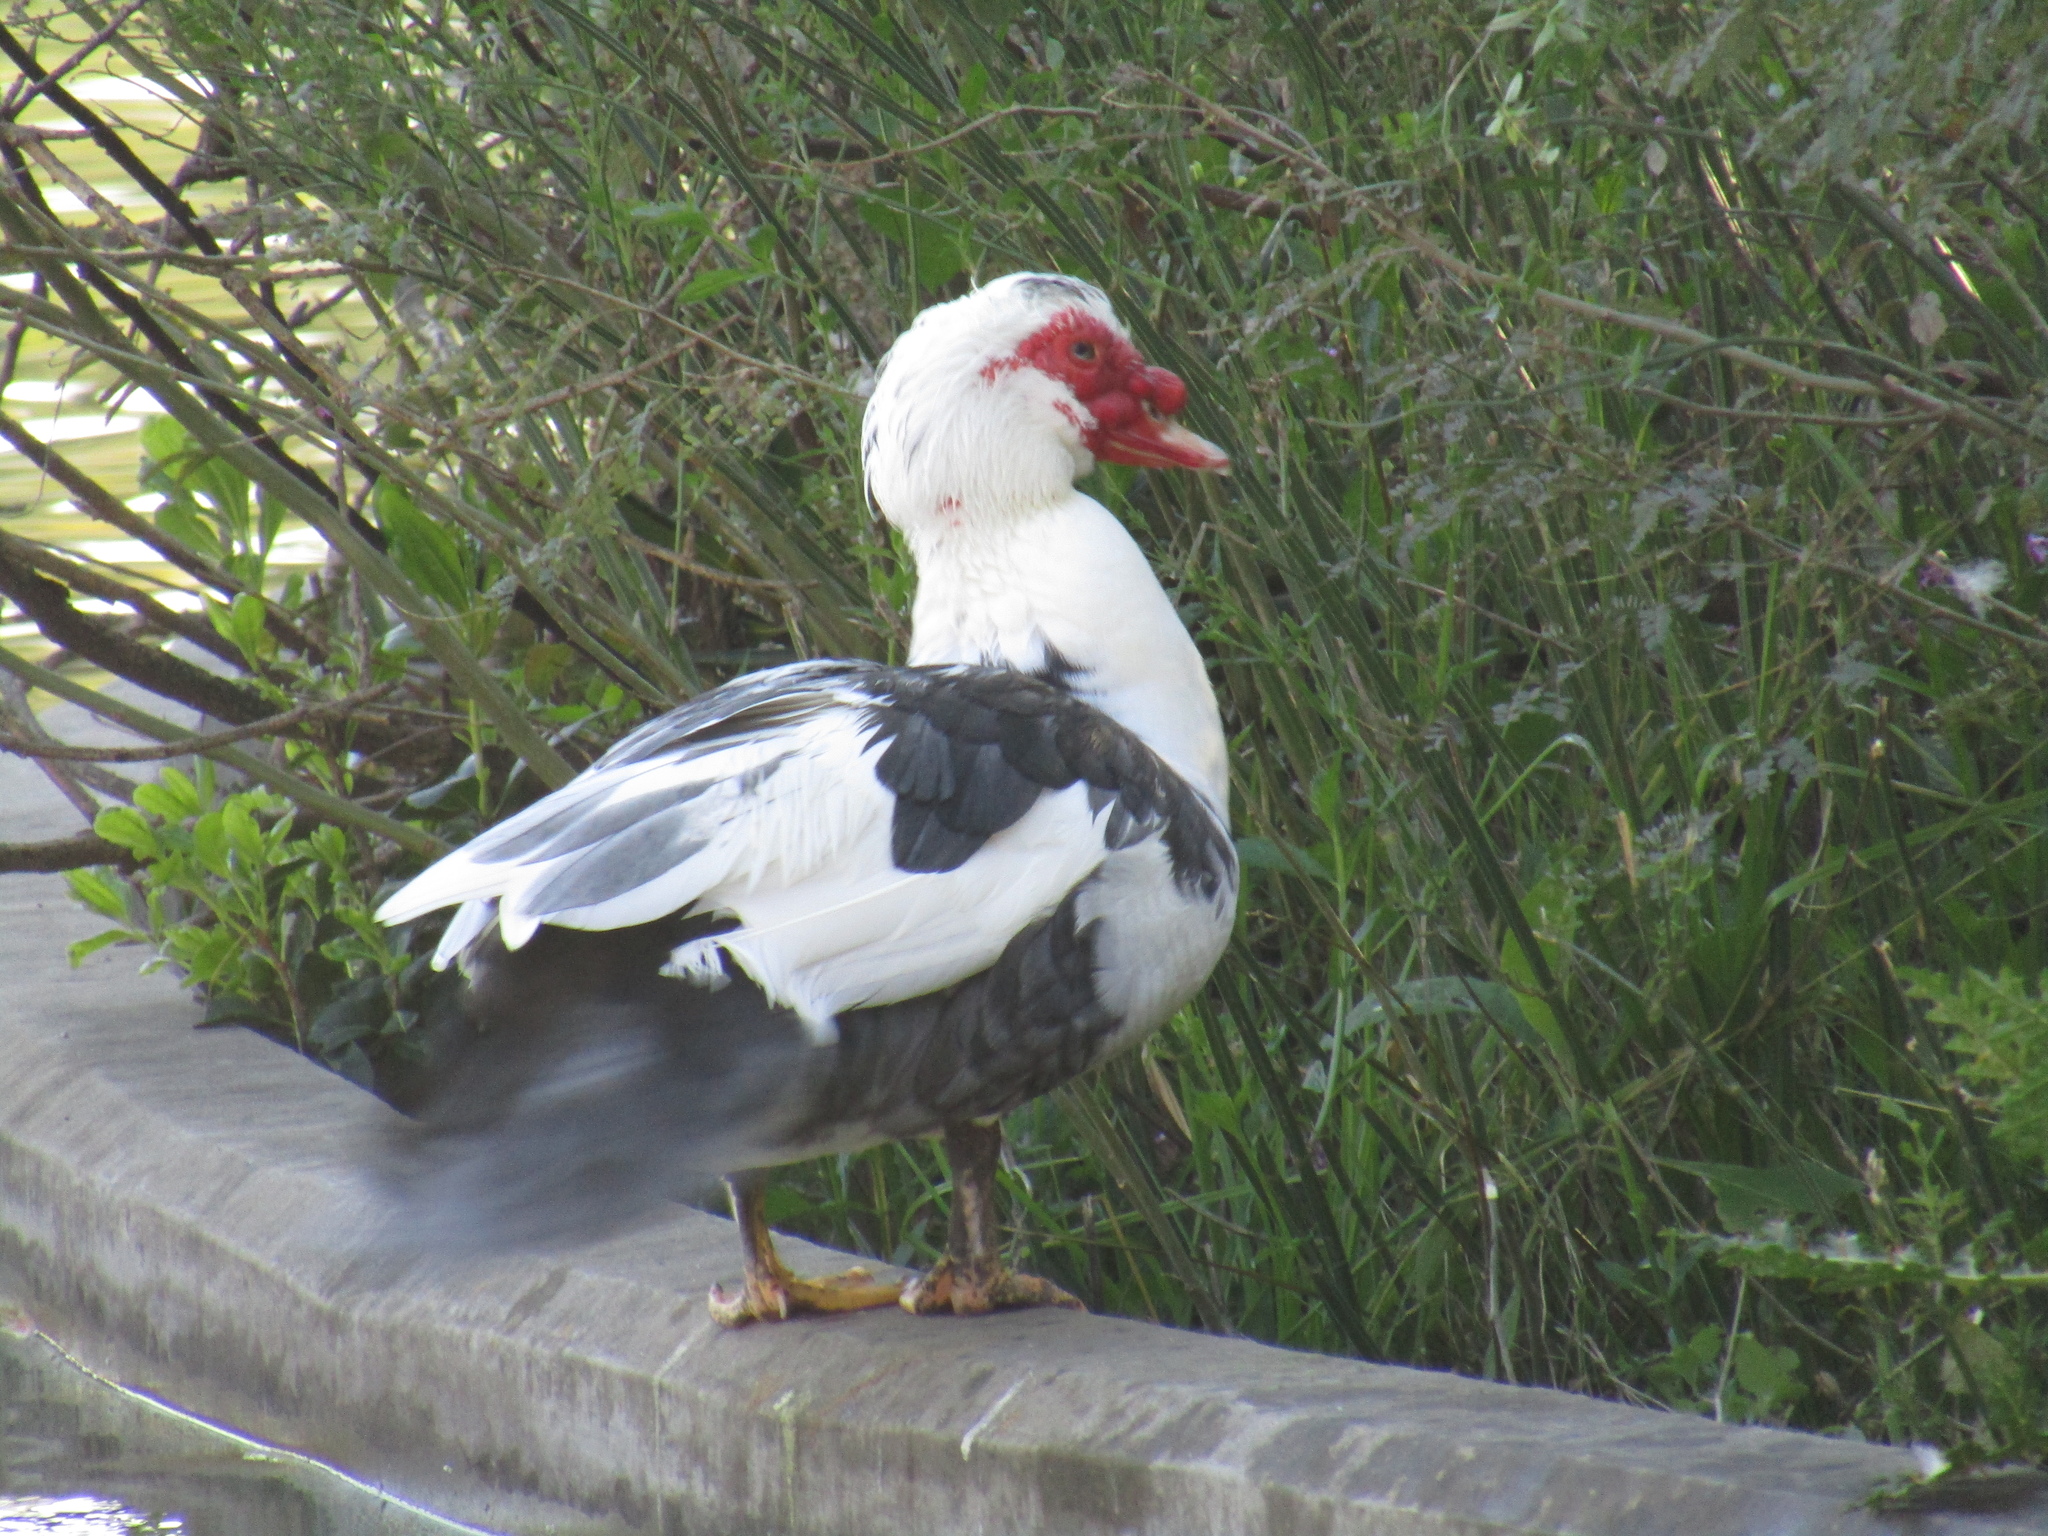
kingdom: Animalia
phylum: Chordata
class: Aves
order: Anseriformes
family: Anatidae
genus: Cairina
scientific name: Cairina moschata
